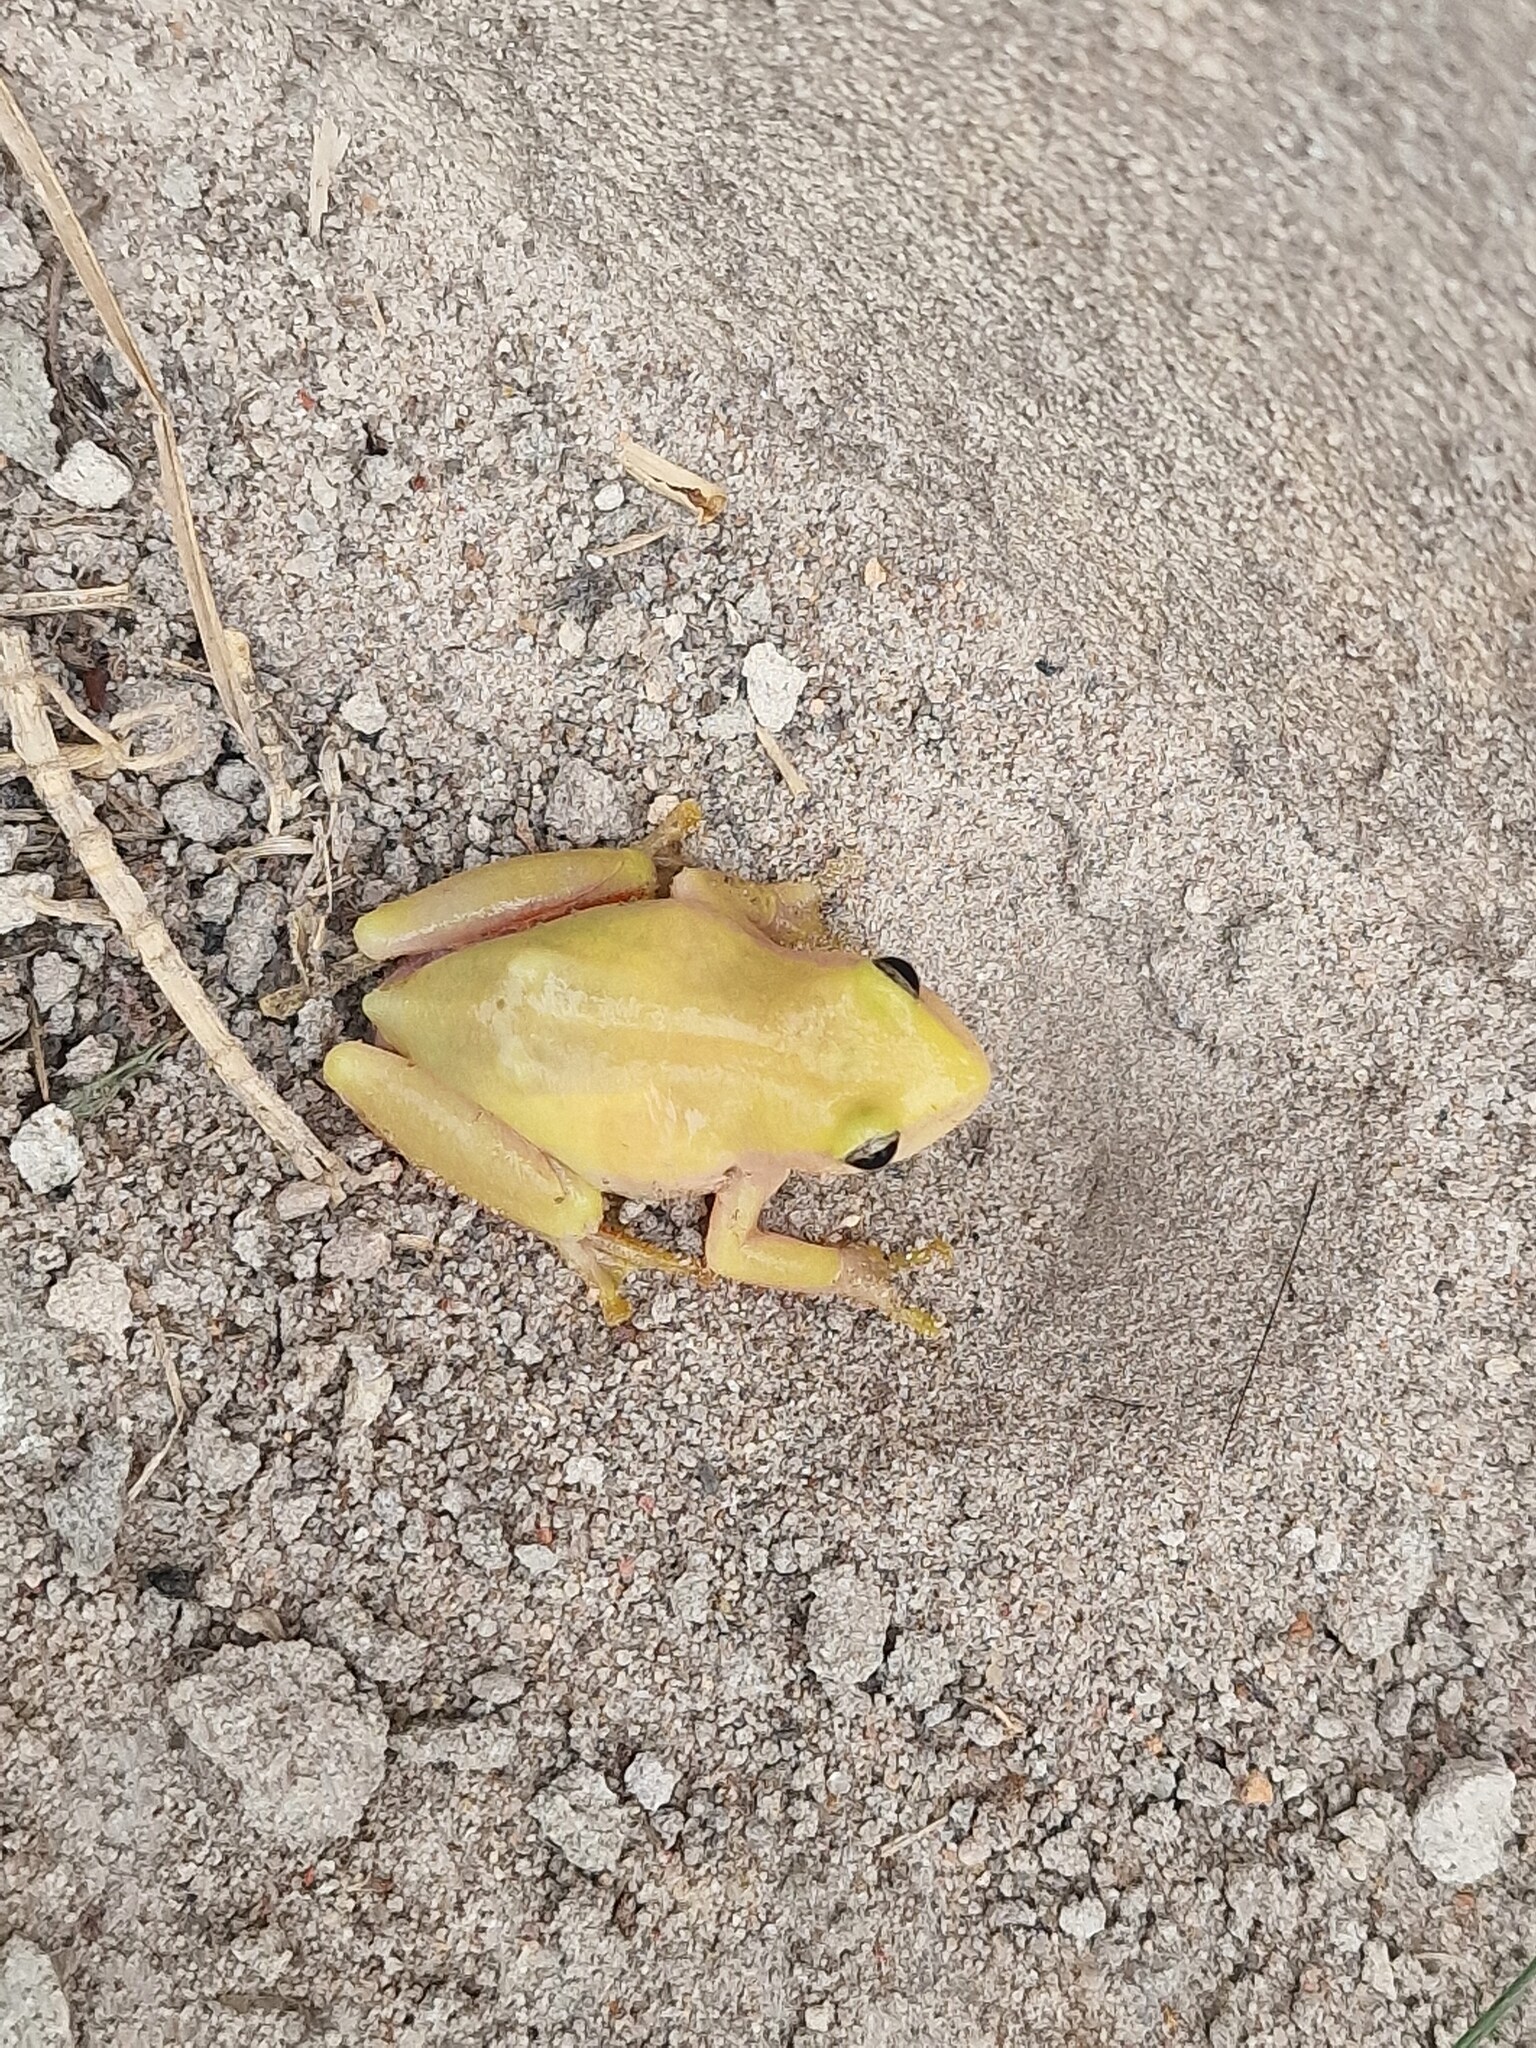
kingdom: Animalia
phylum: Chordata
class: Amphibia
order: Anura
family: Hyperoliidae
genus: Hyperolius
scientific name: Hyperolius kivuensis
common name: Kivu reed frog
